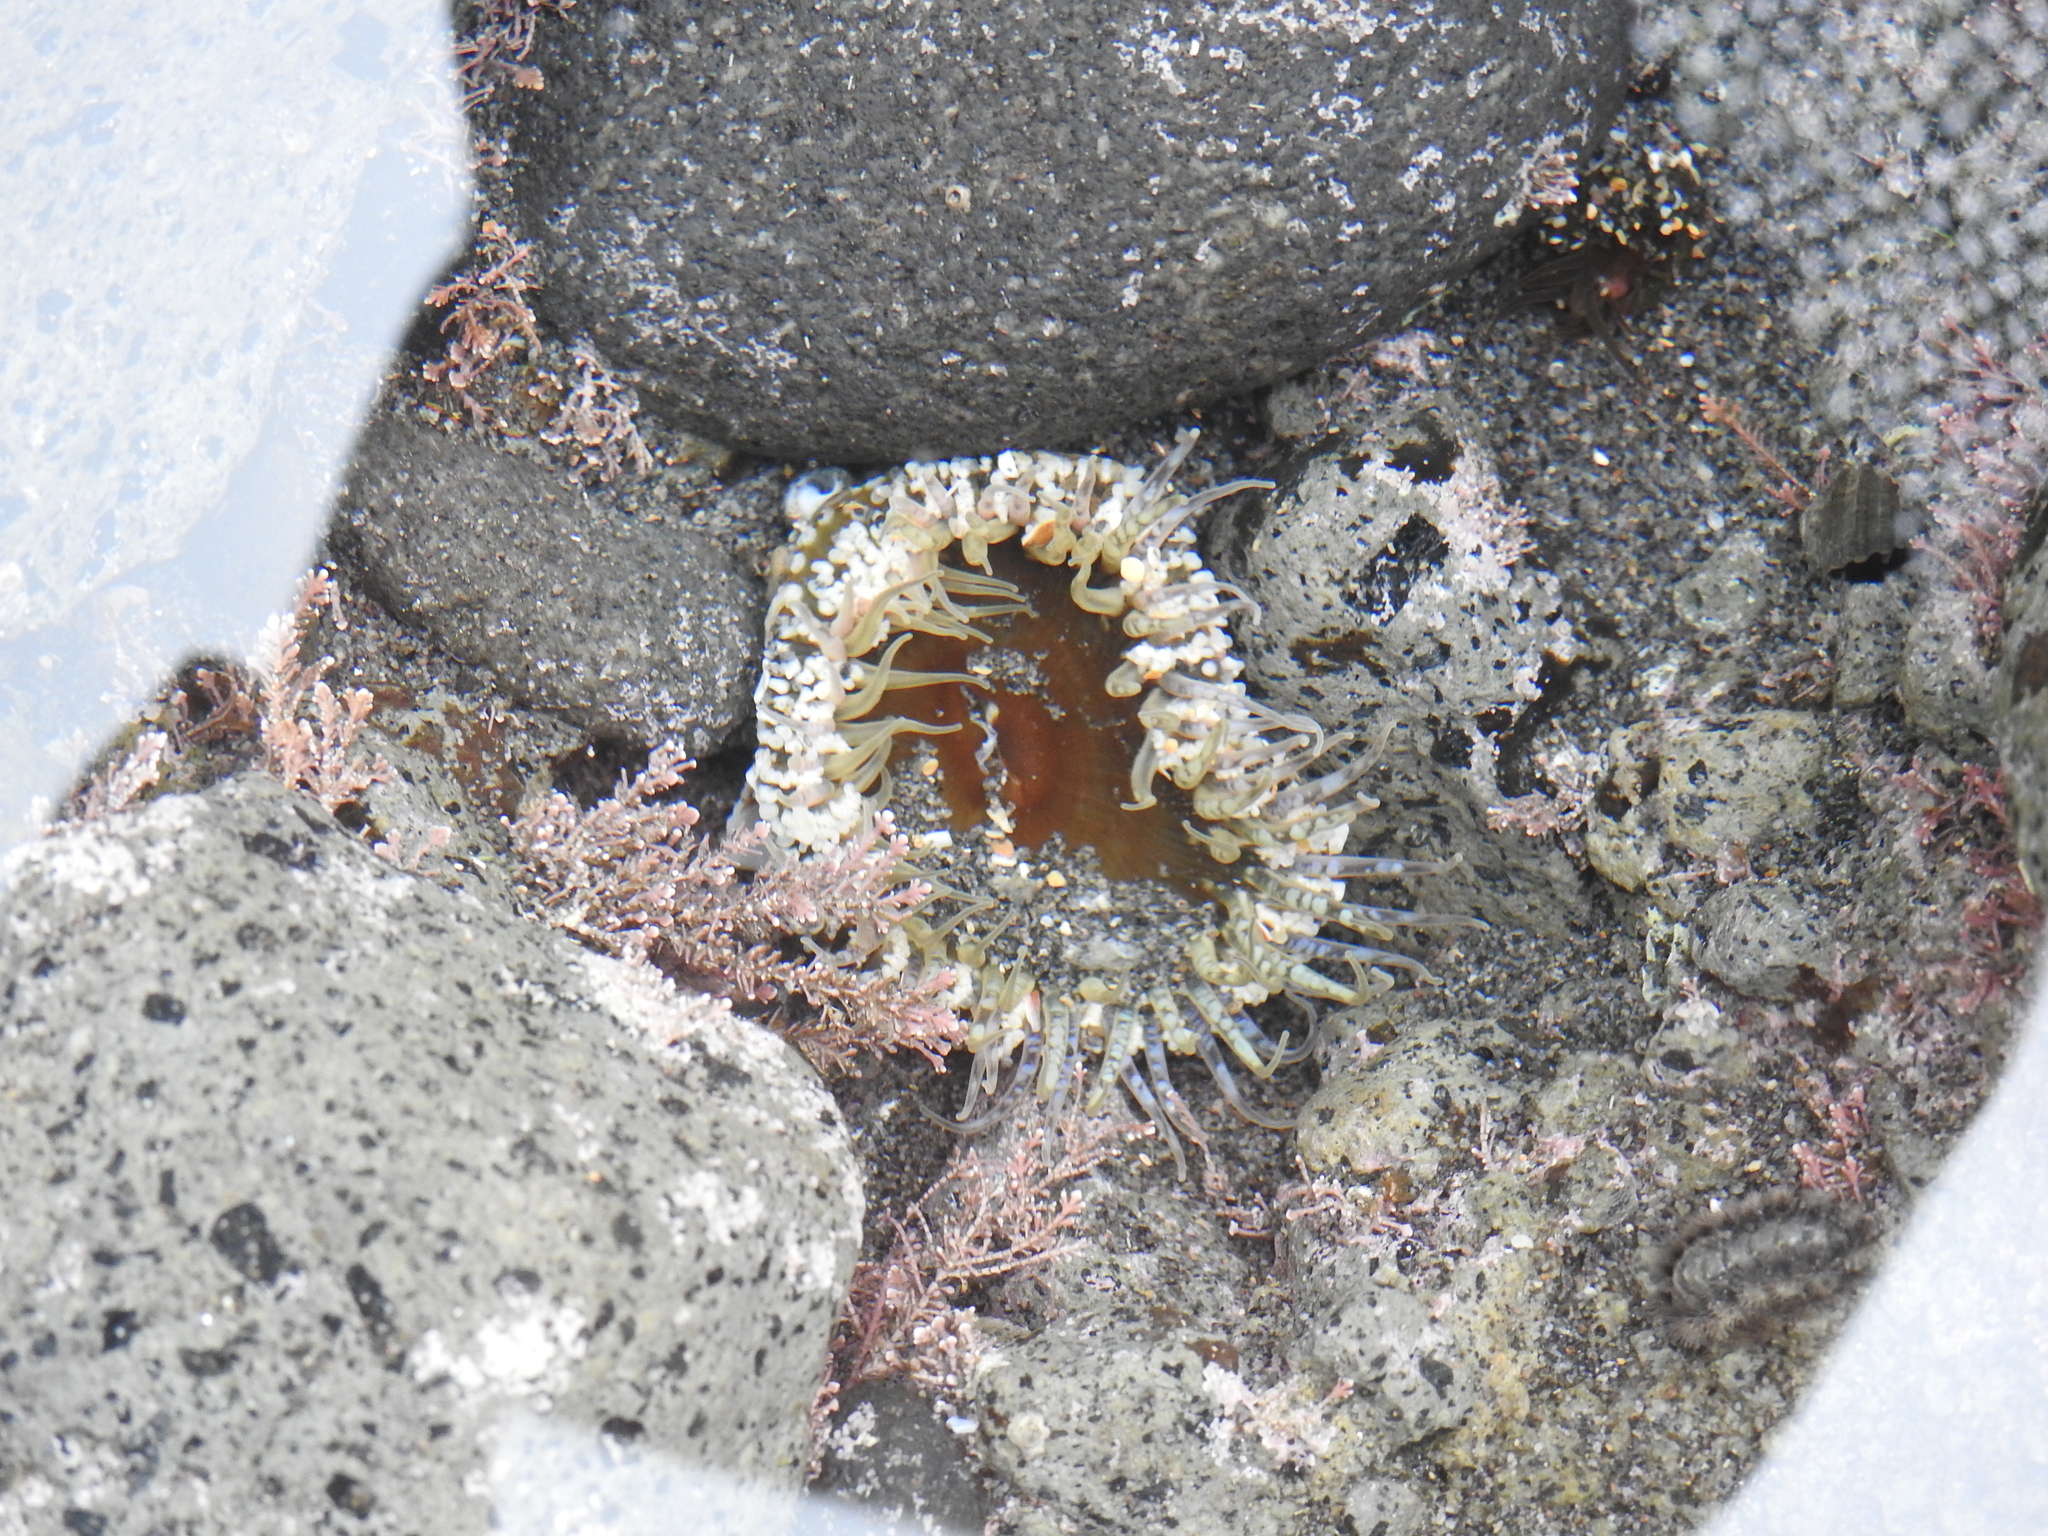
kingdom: Animalia
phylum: Cnidaria
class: Anthozoa
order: Actiniaria
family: Actiniidae
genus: Oulactis
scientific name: Oulactis muscosa
